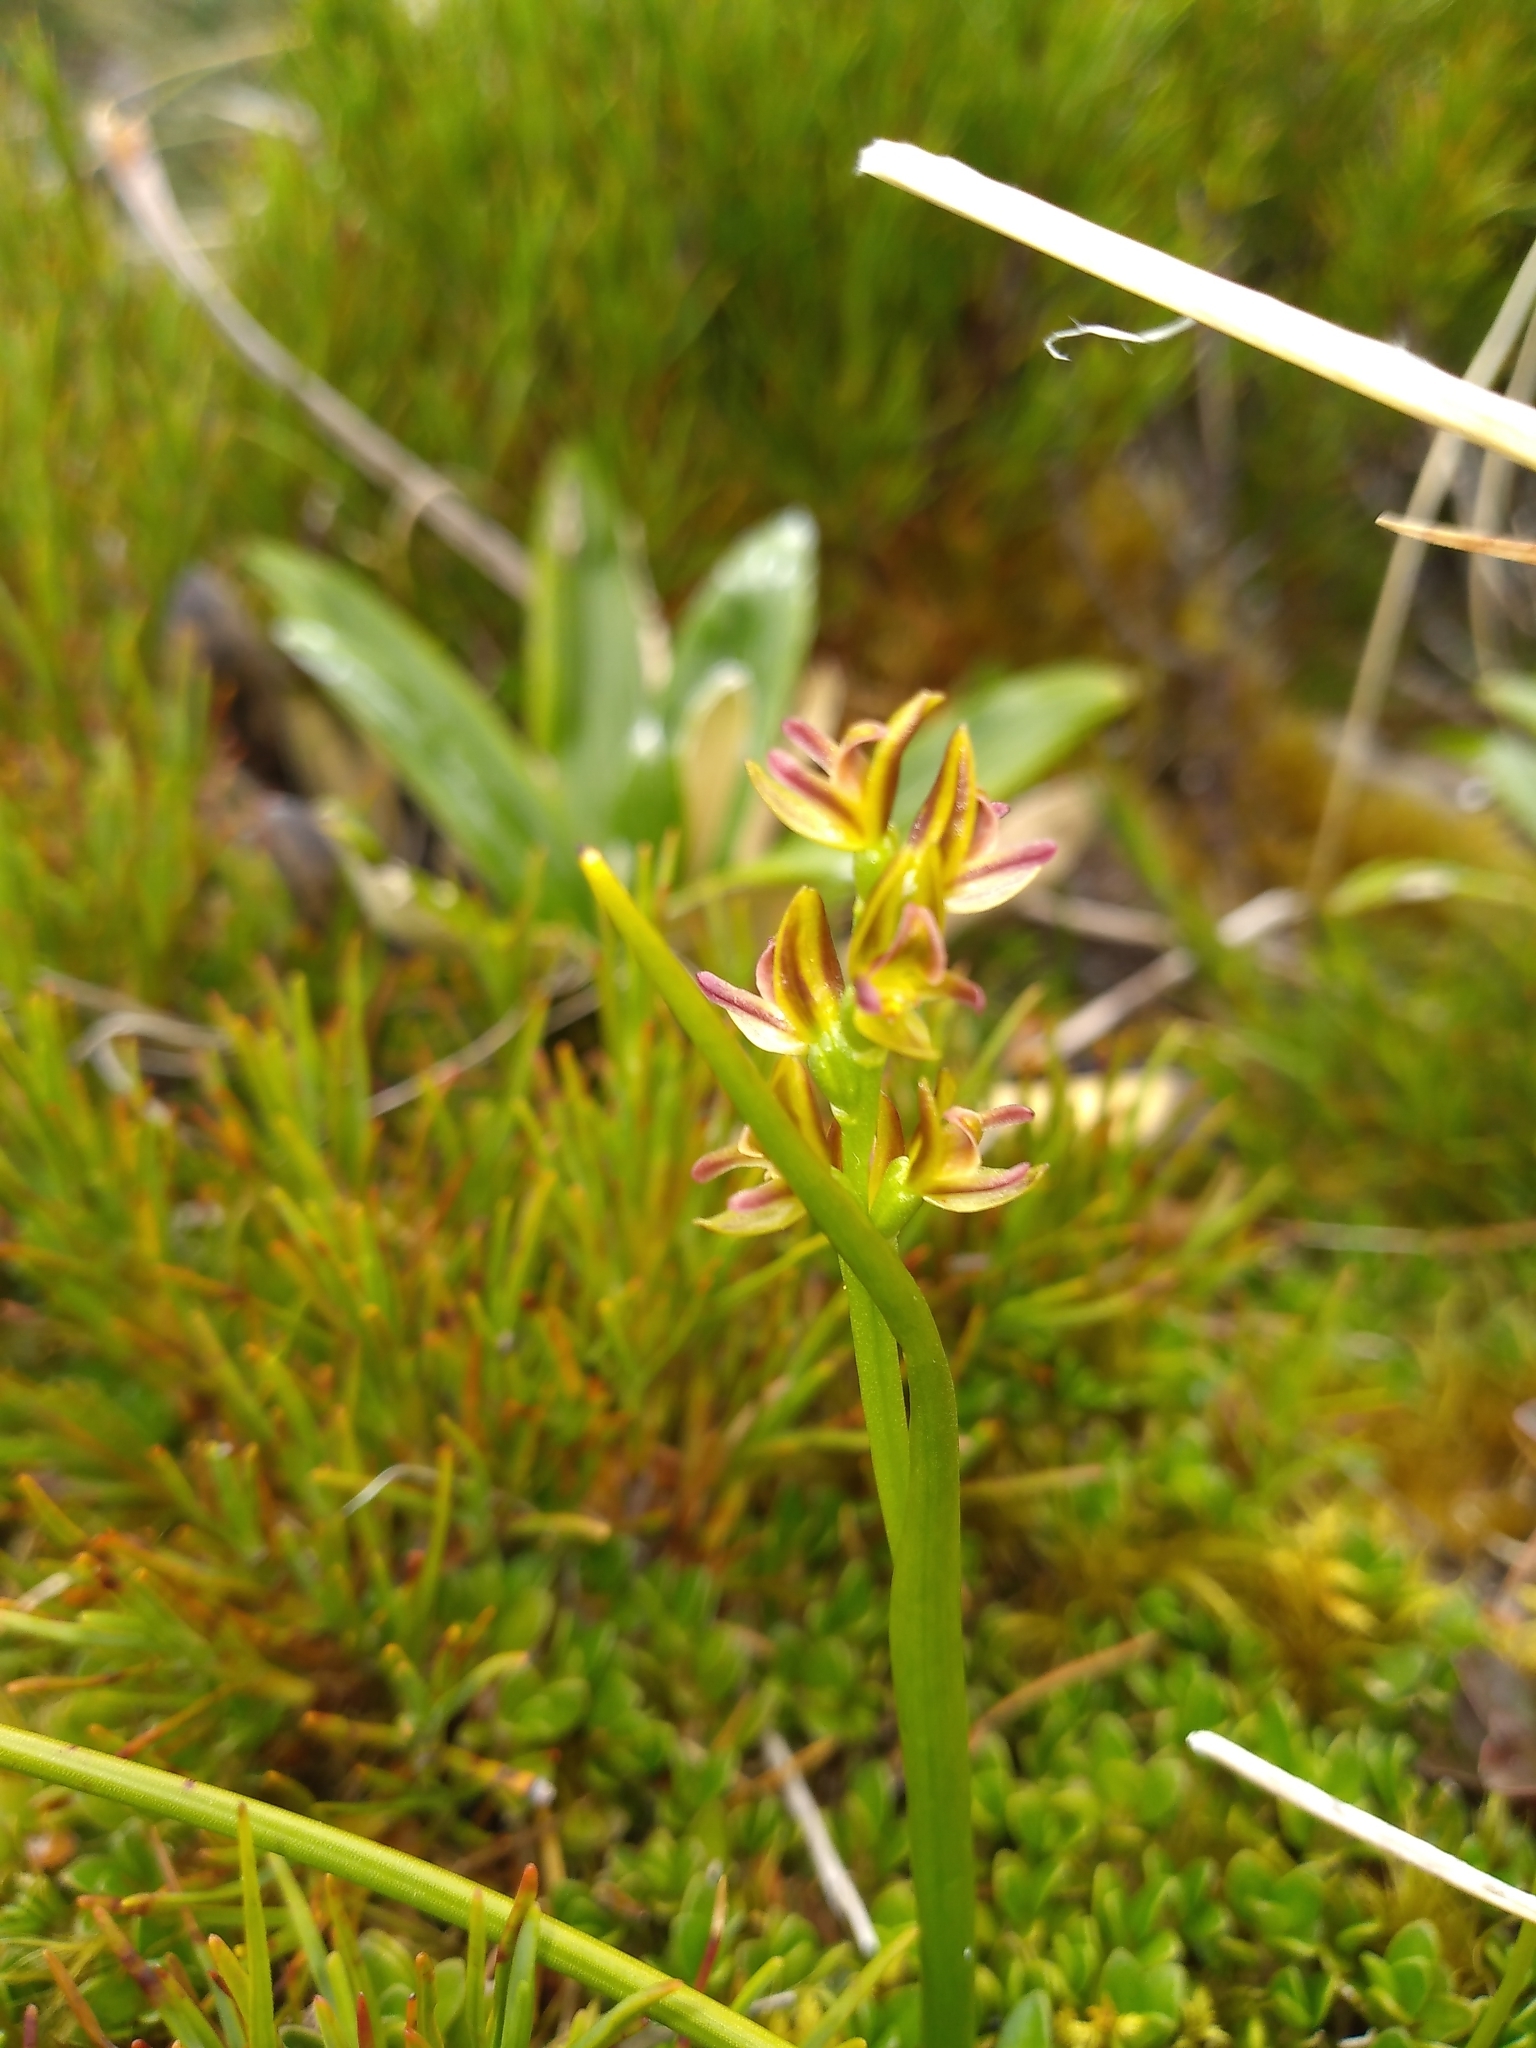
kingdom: Plantae
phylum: Tracheophyta
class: Liliopsida
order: Asparagales
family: Orchidaceae
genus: Prasophyllum
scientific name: Prasophyllum colensoi
